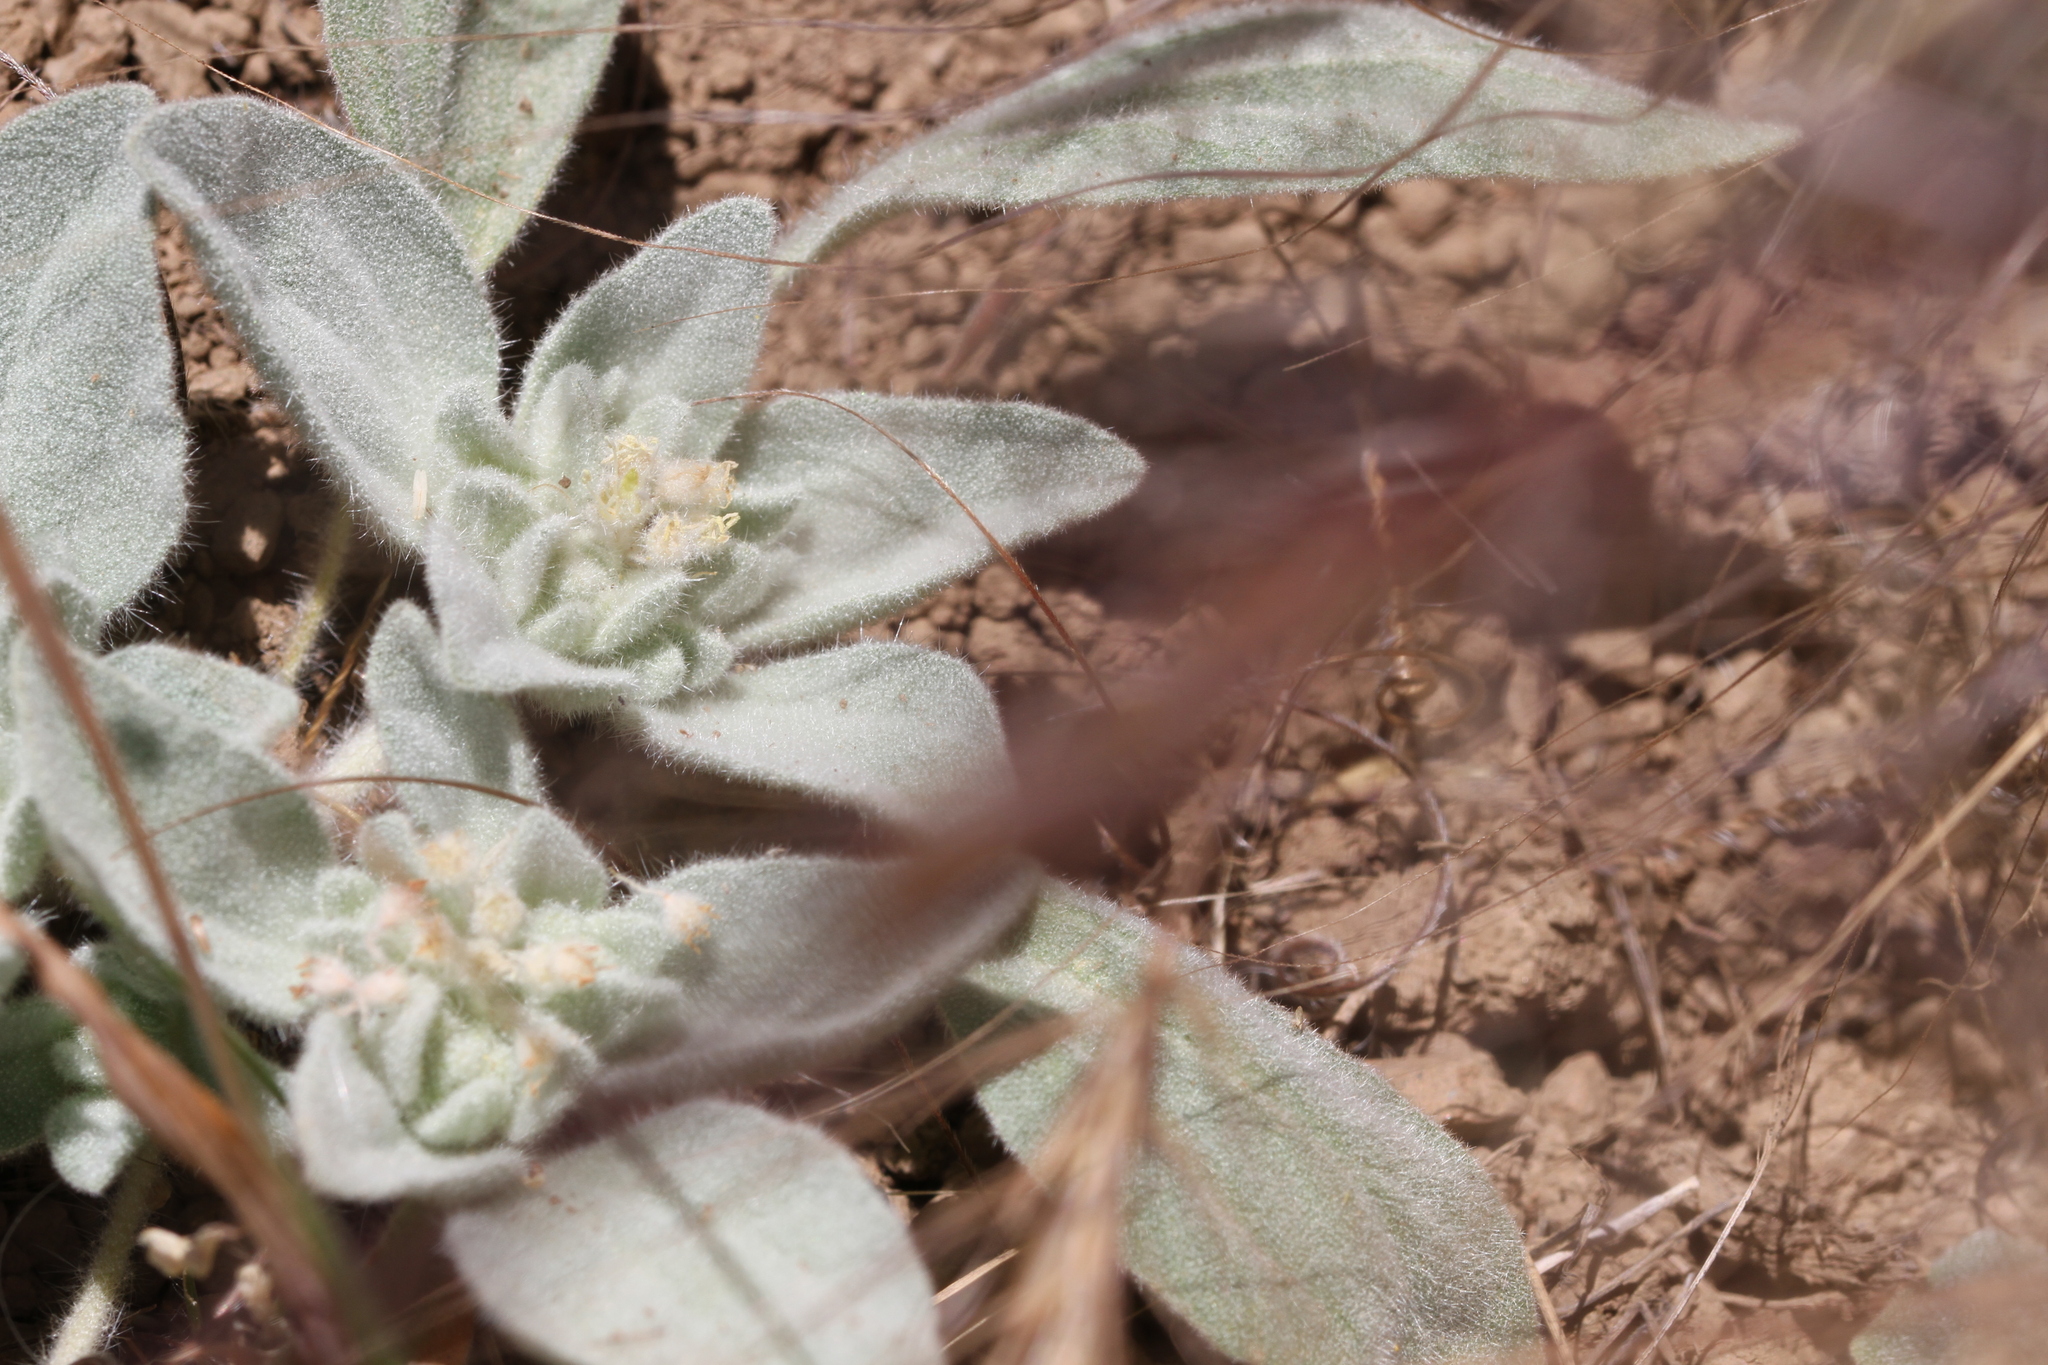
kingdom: Plantae
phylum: Tracheophyta
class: Magnoliopsida
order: Malpighiales
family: Euphorbiaceae
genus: Croton
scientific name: Croton setiger
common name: Dove weed
